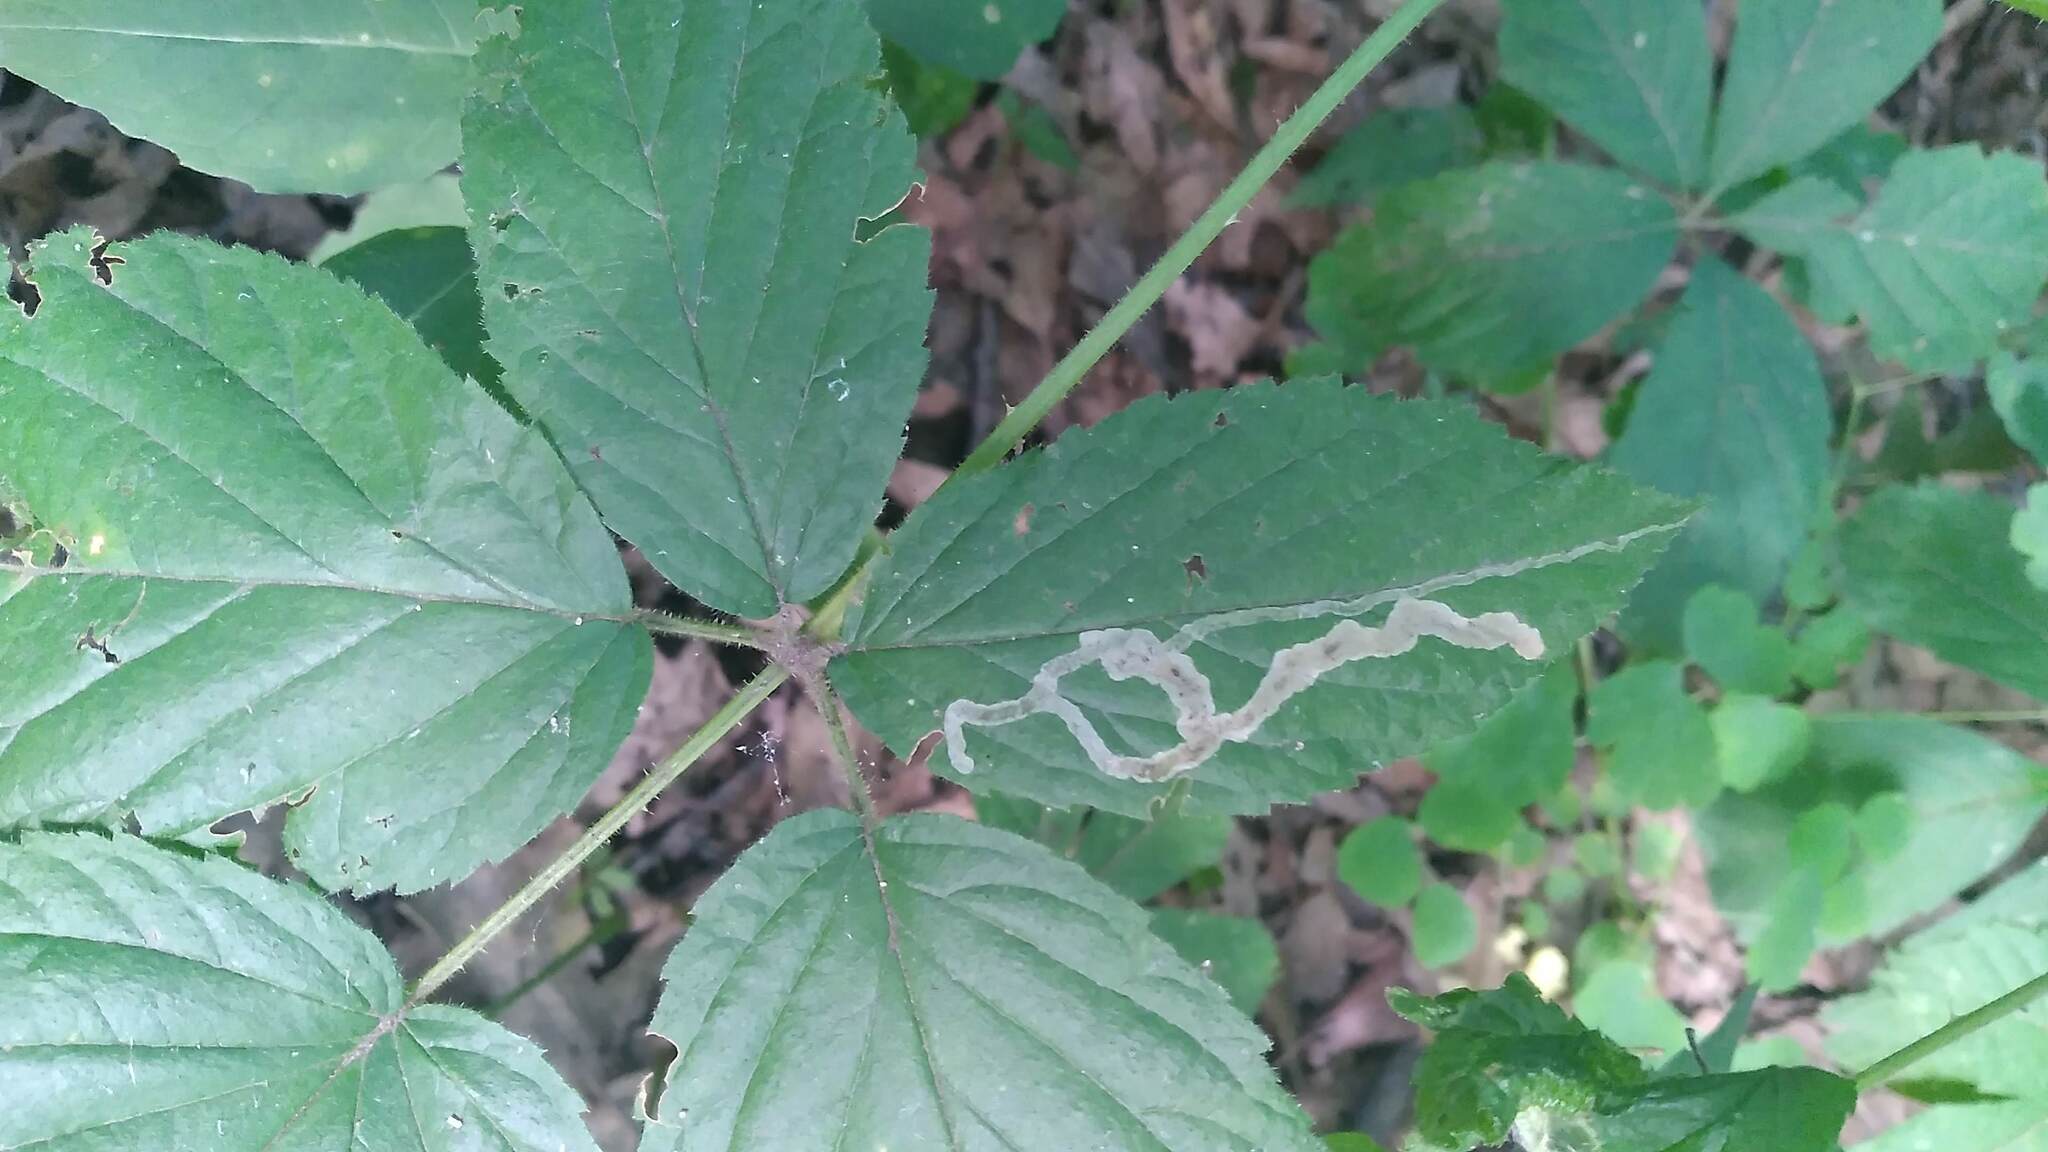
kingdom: Animalia
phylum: Arthropoda
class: Insecta
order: Diptera
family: Agromyzidae
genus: Agromyza
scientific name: Agromyza vockerothi
